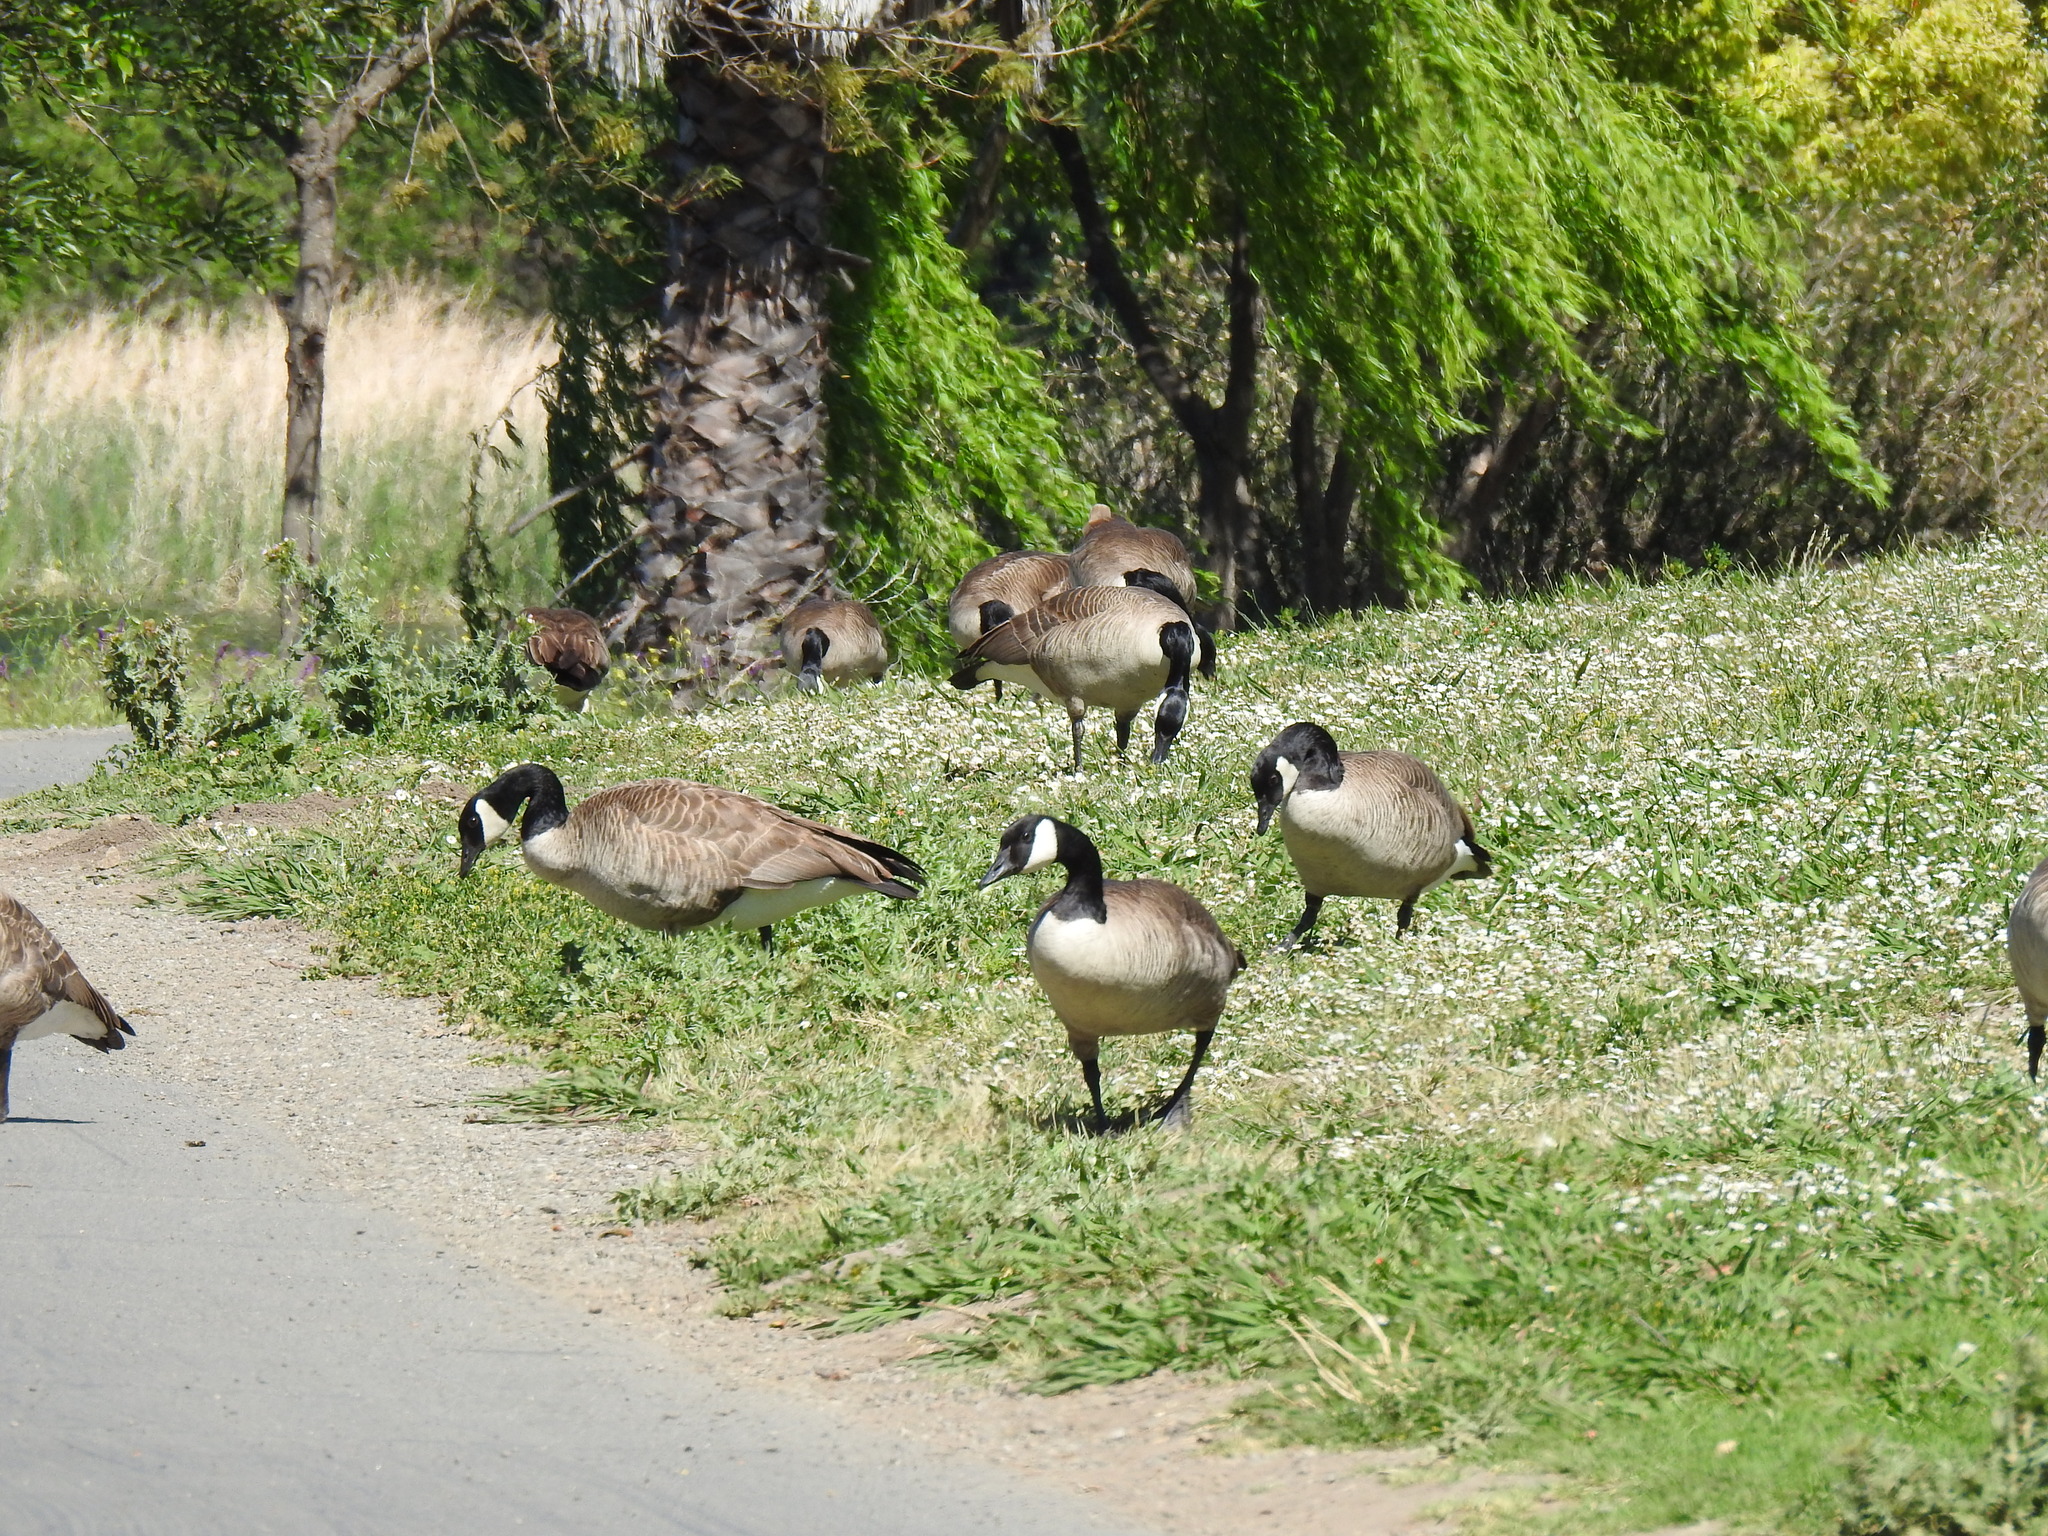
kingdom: Animalia
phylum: Chordata
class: Aves
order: Anseriformes
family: Anatidae
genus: Branta
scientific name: Branta canadensis
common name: Canada goose
